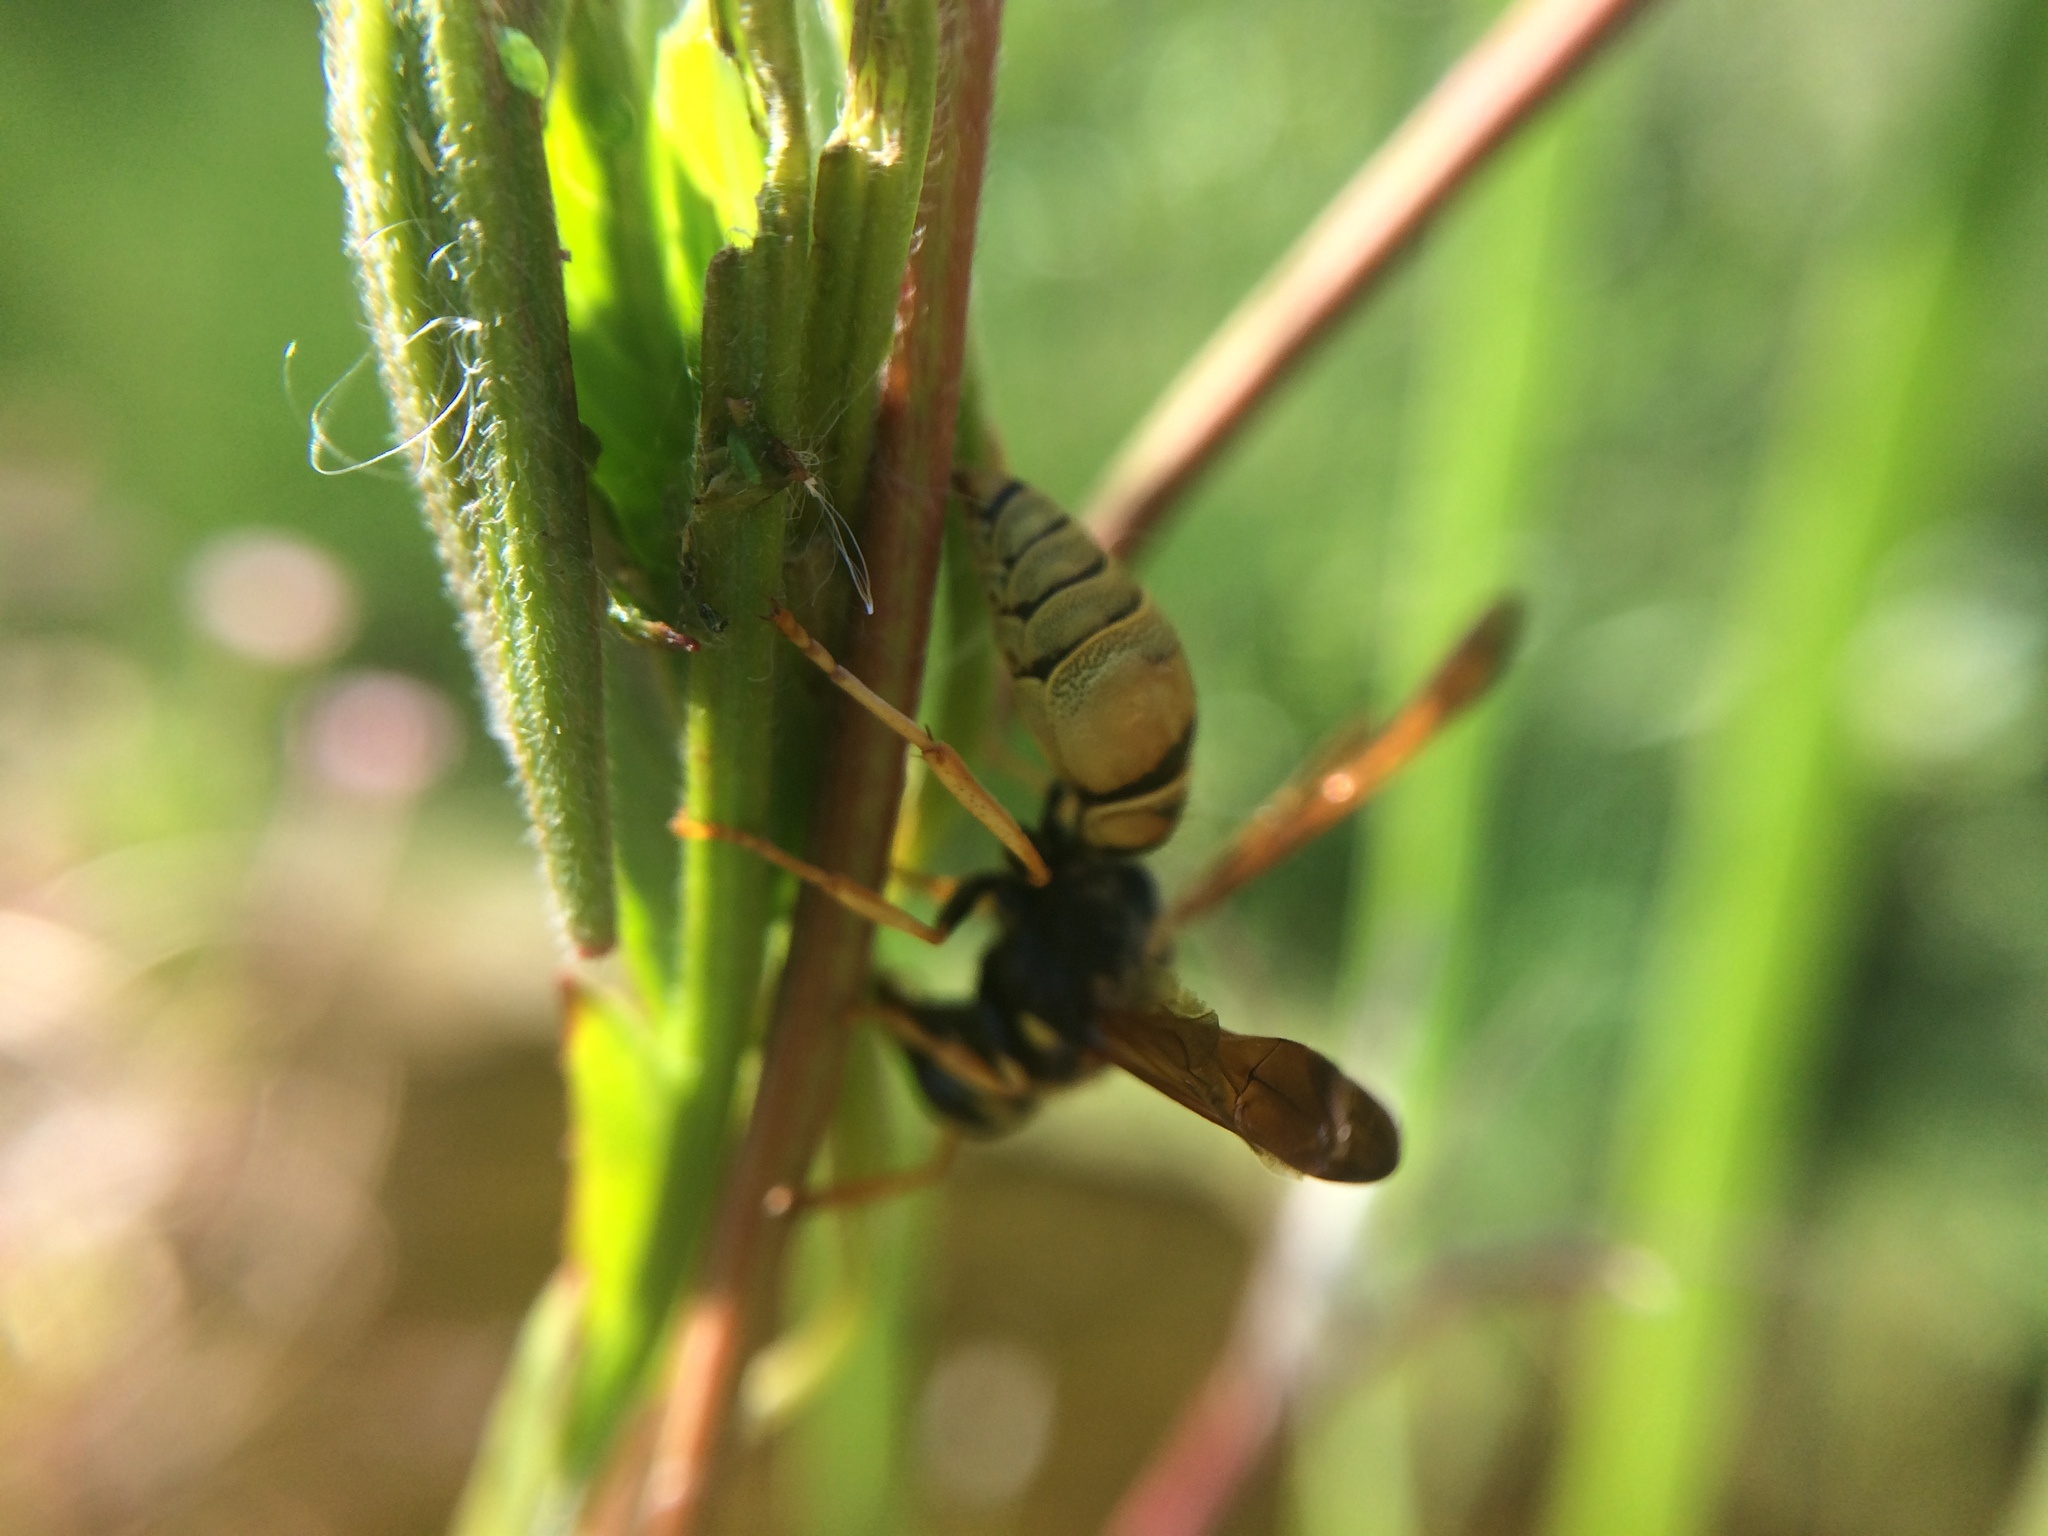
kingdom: Animalia
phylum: Arthropoda
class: Insecta
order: Hymenoptera
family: Vespidae
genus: Ancistrocerus
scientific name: Ancistrocerus
